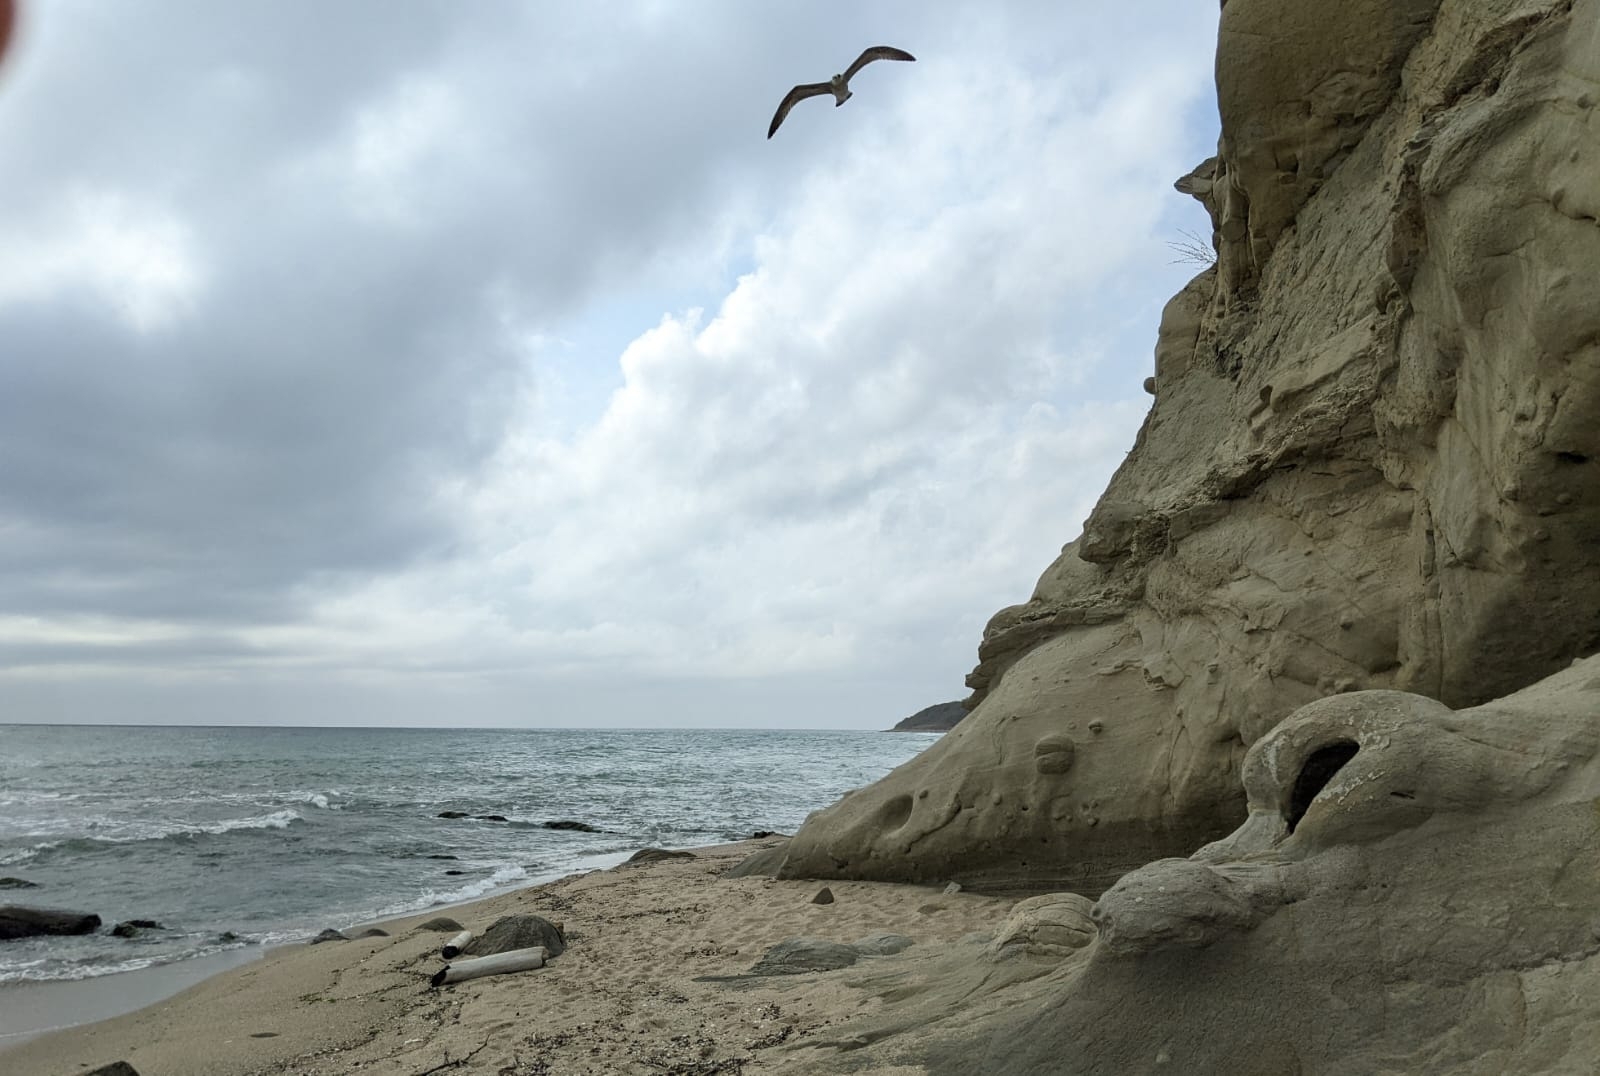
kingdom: Animalia
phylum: Chordata
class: Aves
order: Charadriiformes
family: Laridae
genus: Larus
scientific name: Larus michahellis
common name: Yellow-legged gull
